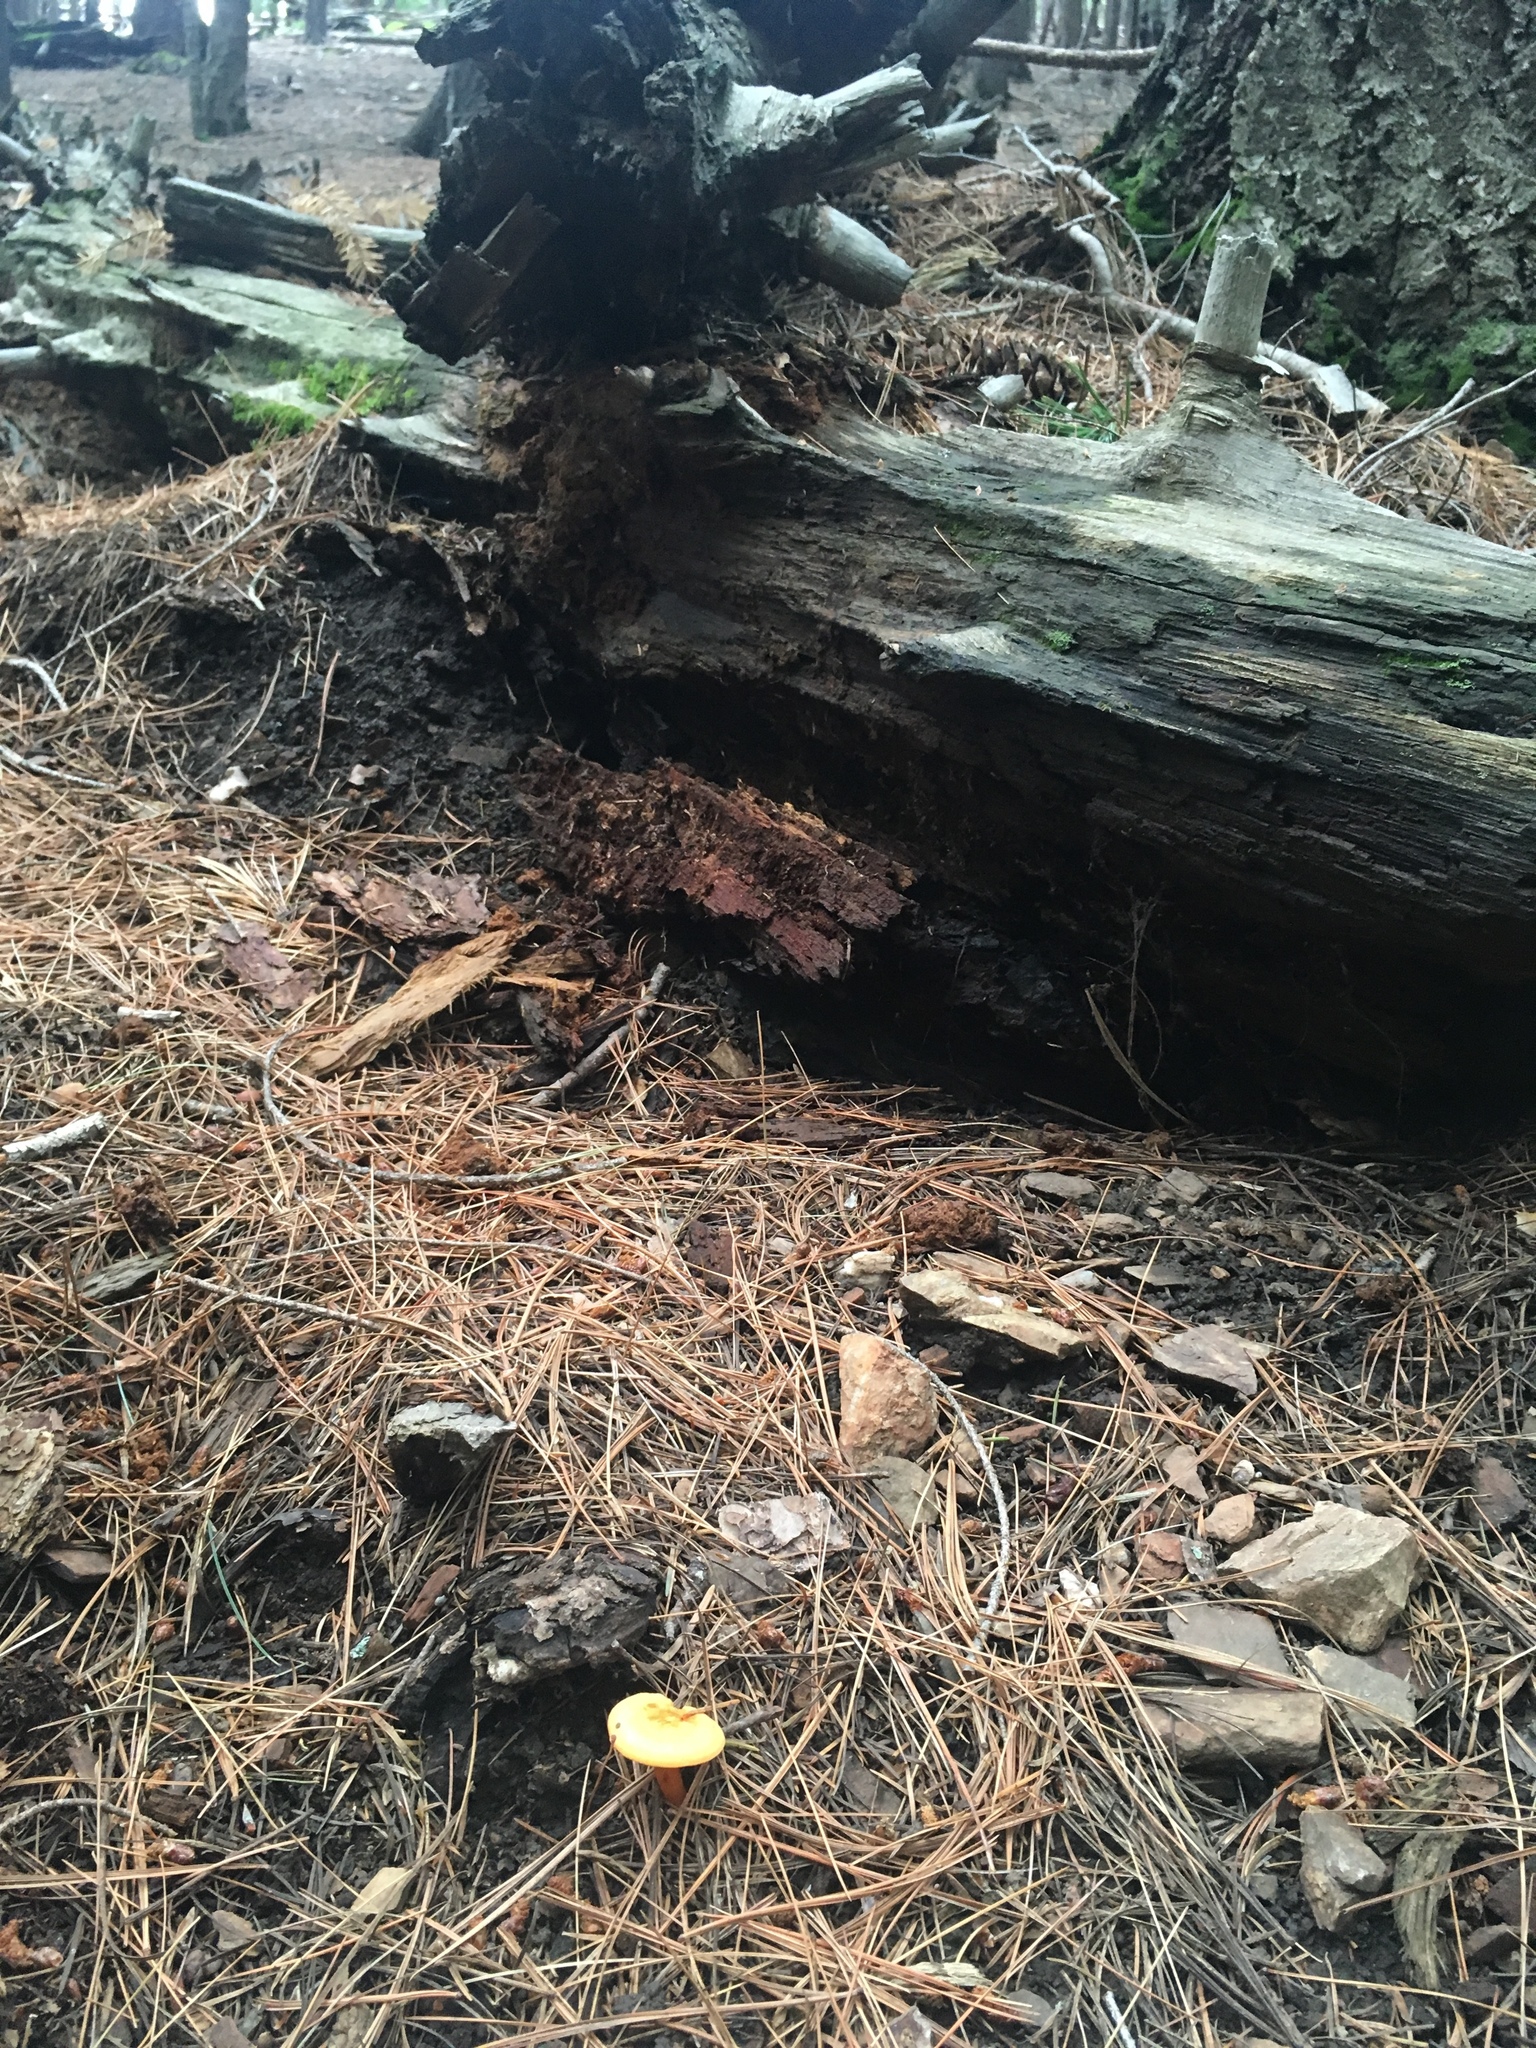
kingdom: Fungi
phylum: Basidiomycota
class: Agaricomycetes
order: Boletales
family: Hygrophoropsidaceae
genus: Hygrophoropsis
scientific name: Hygrophoropsis aurantiaca
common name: False chanterelle
